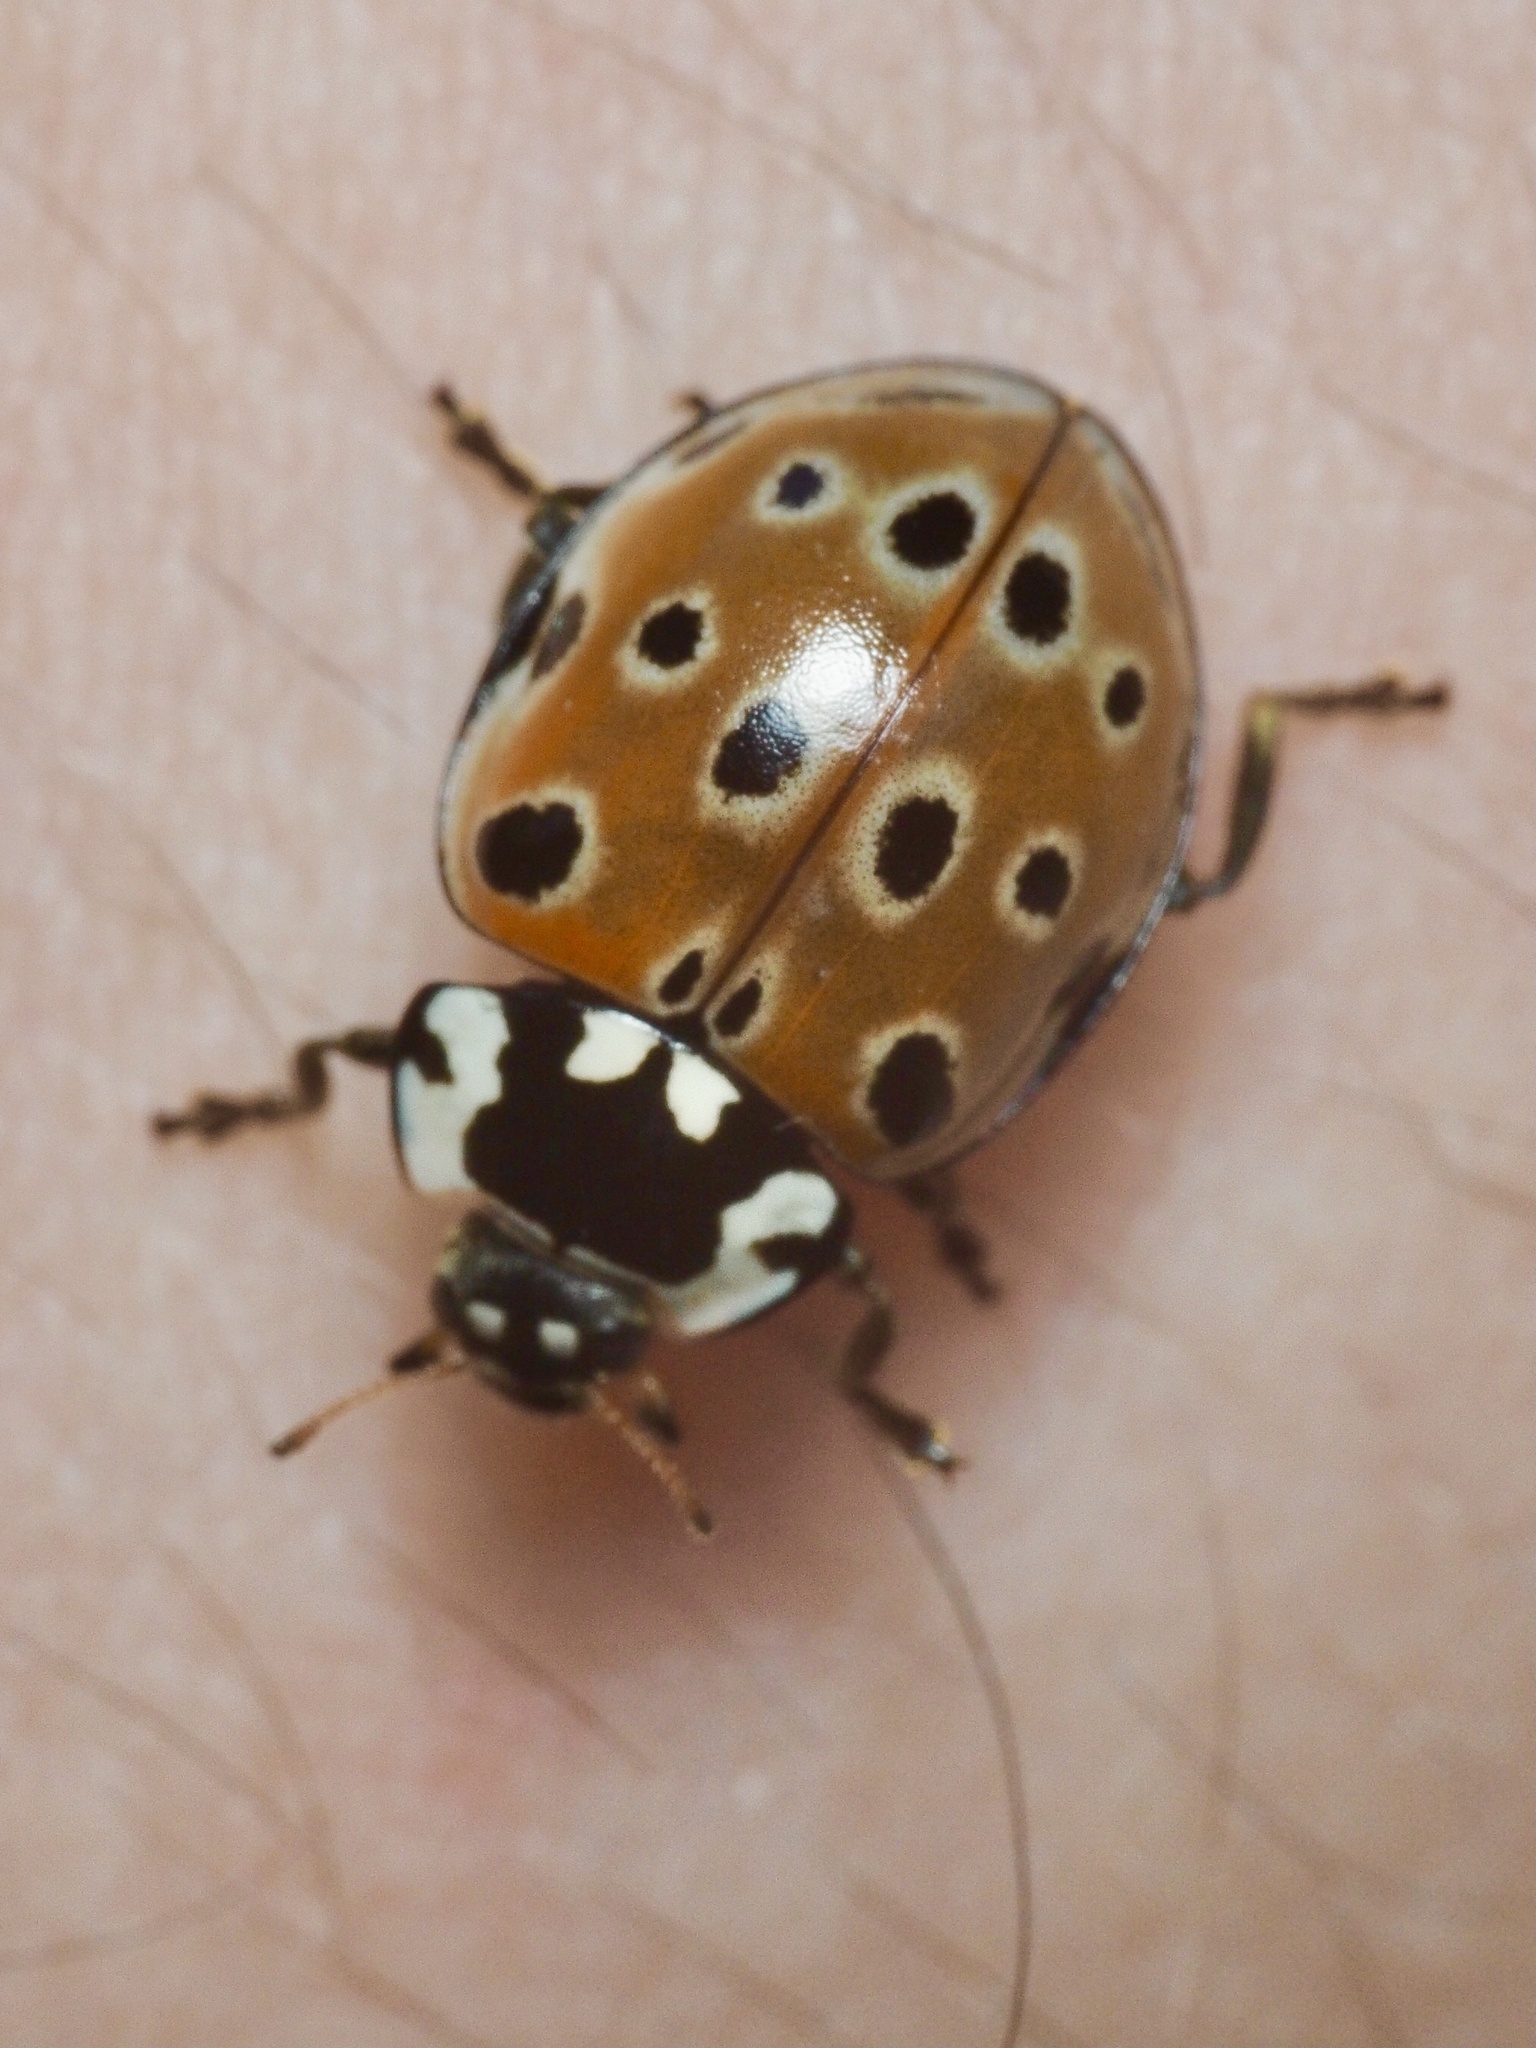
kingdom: Animalia
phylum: Arthropoda
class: Insecta
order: Coleoptera
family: Coccinellidae
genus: Anatis
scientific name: Anatis ocellata
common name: Eyed ladybird
